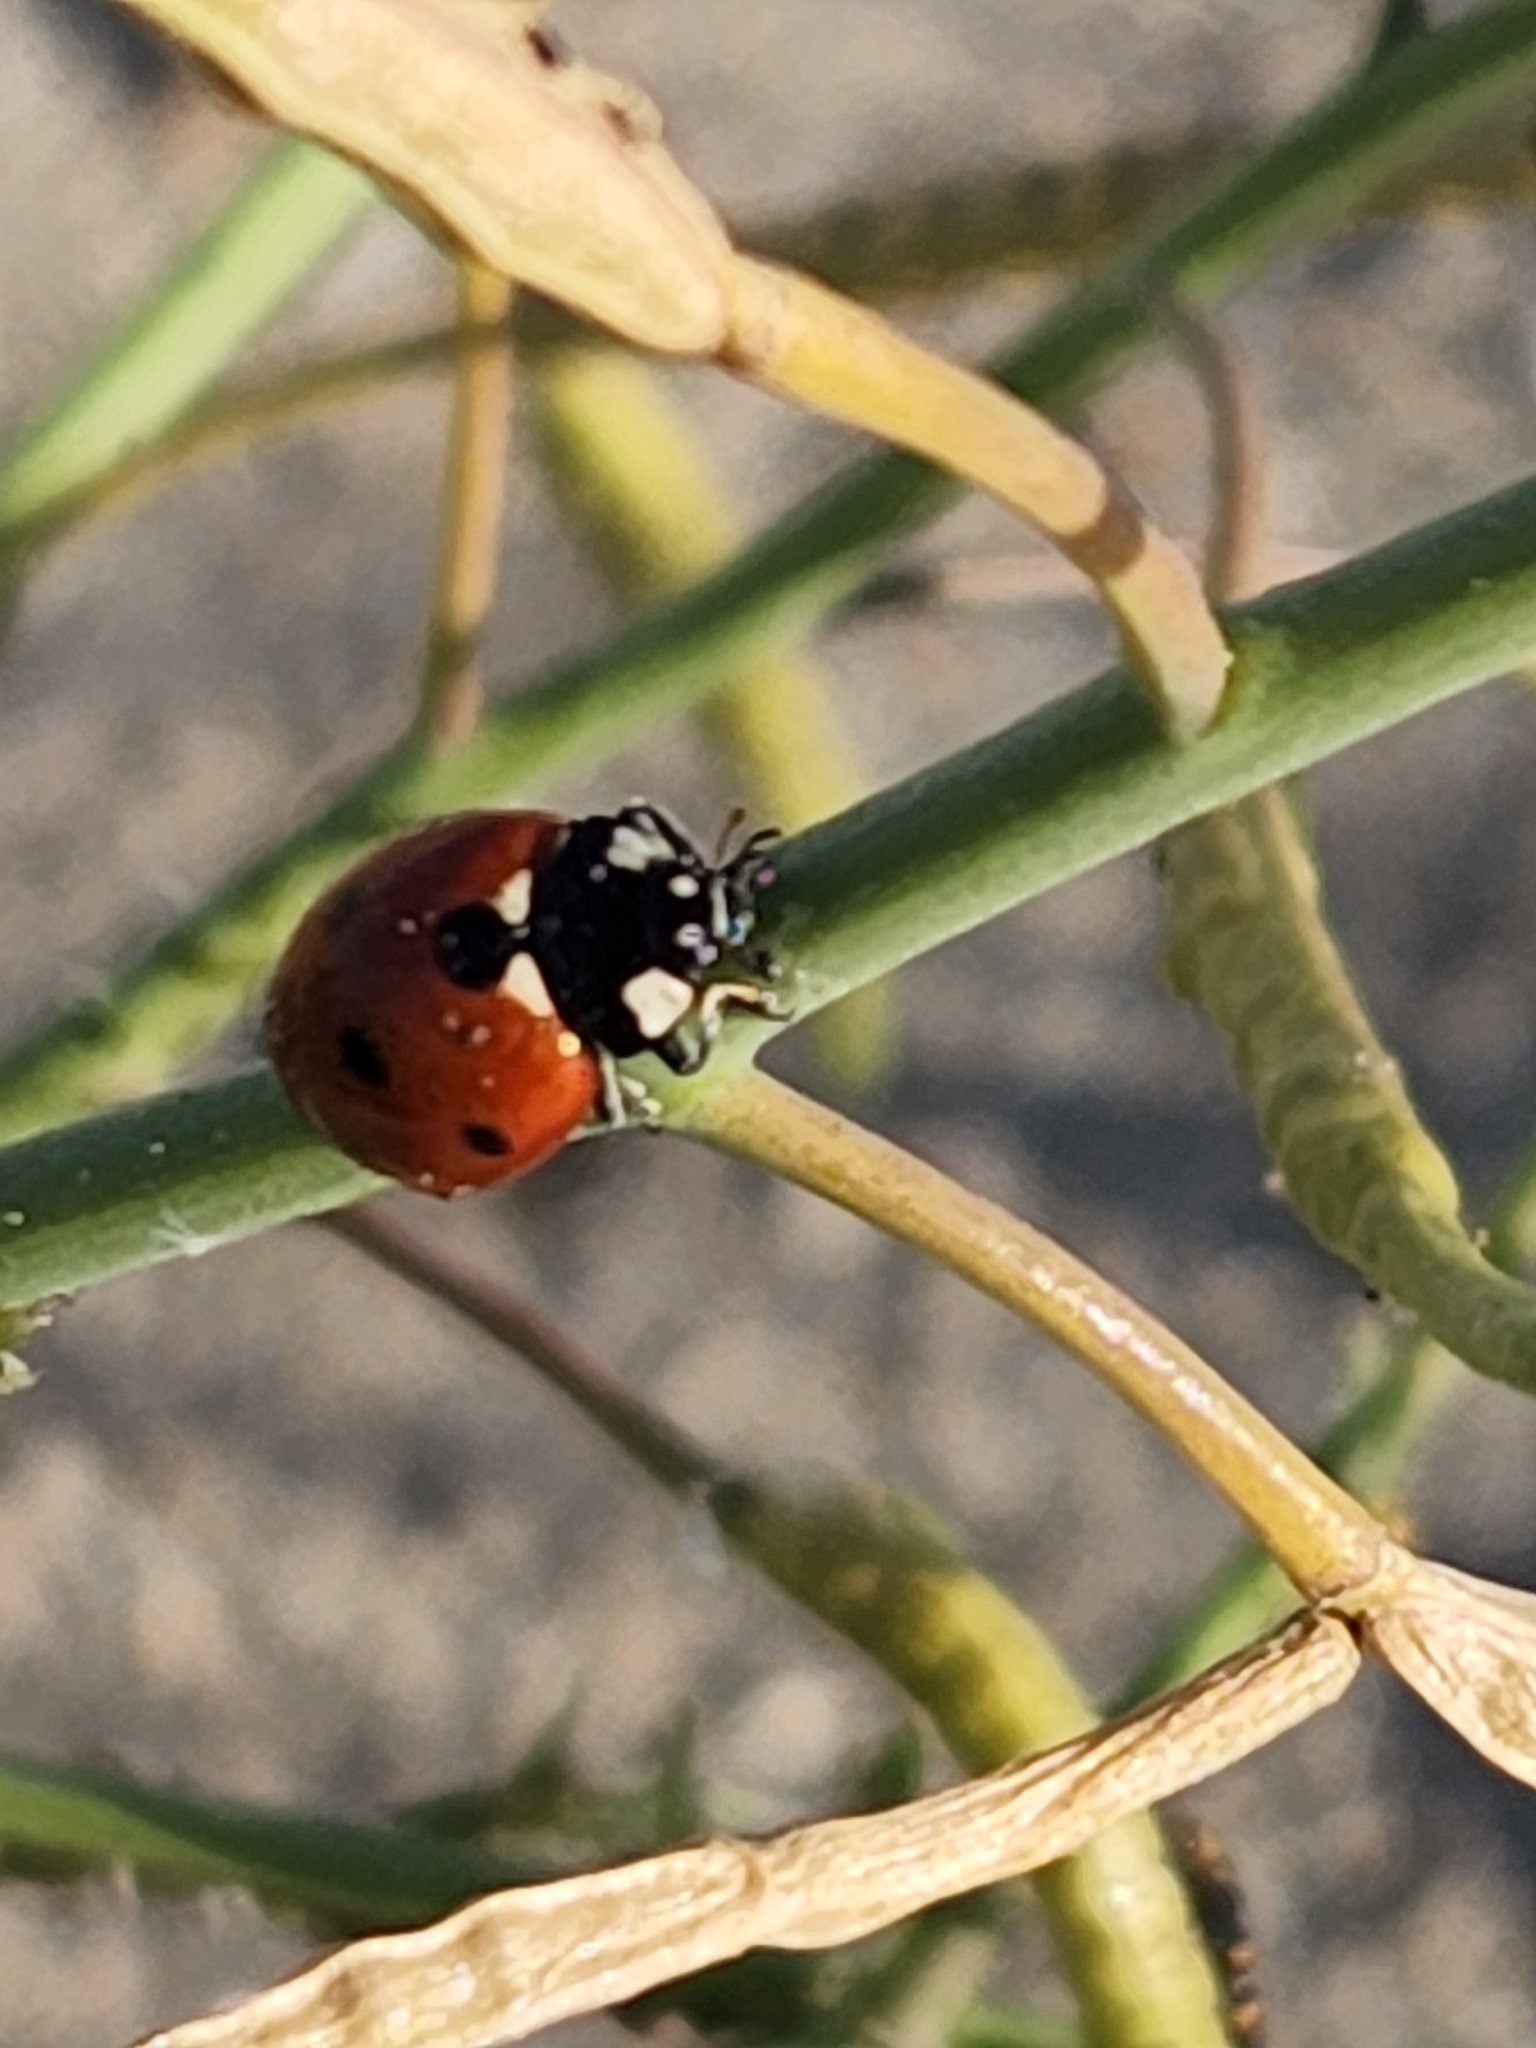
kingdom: Animalia
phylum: Arthropoda
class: Insecta
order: Coleoptera
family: Coccinellidae
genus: Coccinella
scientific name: Coccinella septempunctata
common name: Sevenspotted lady beetle
